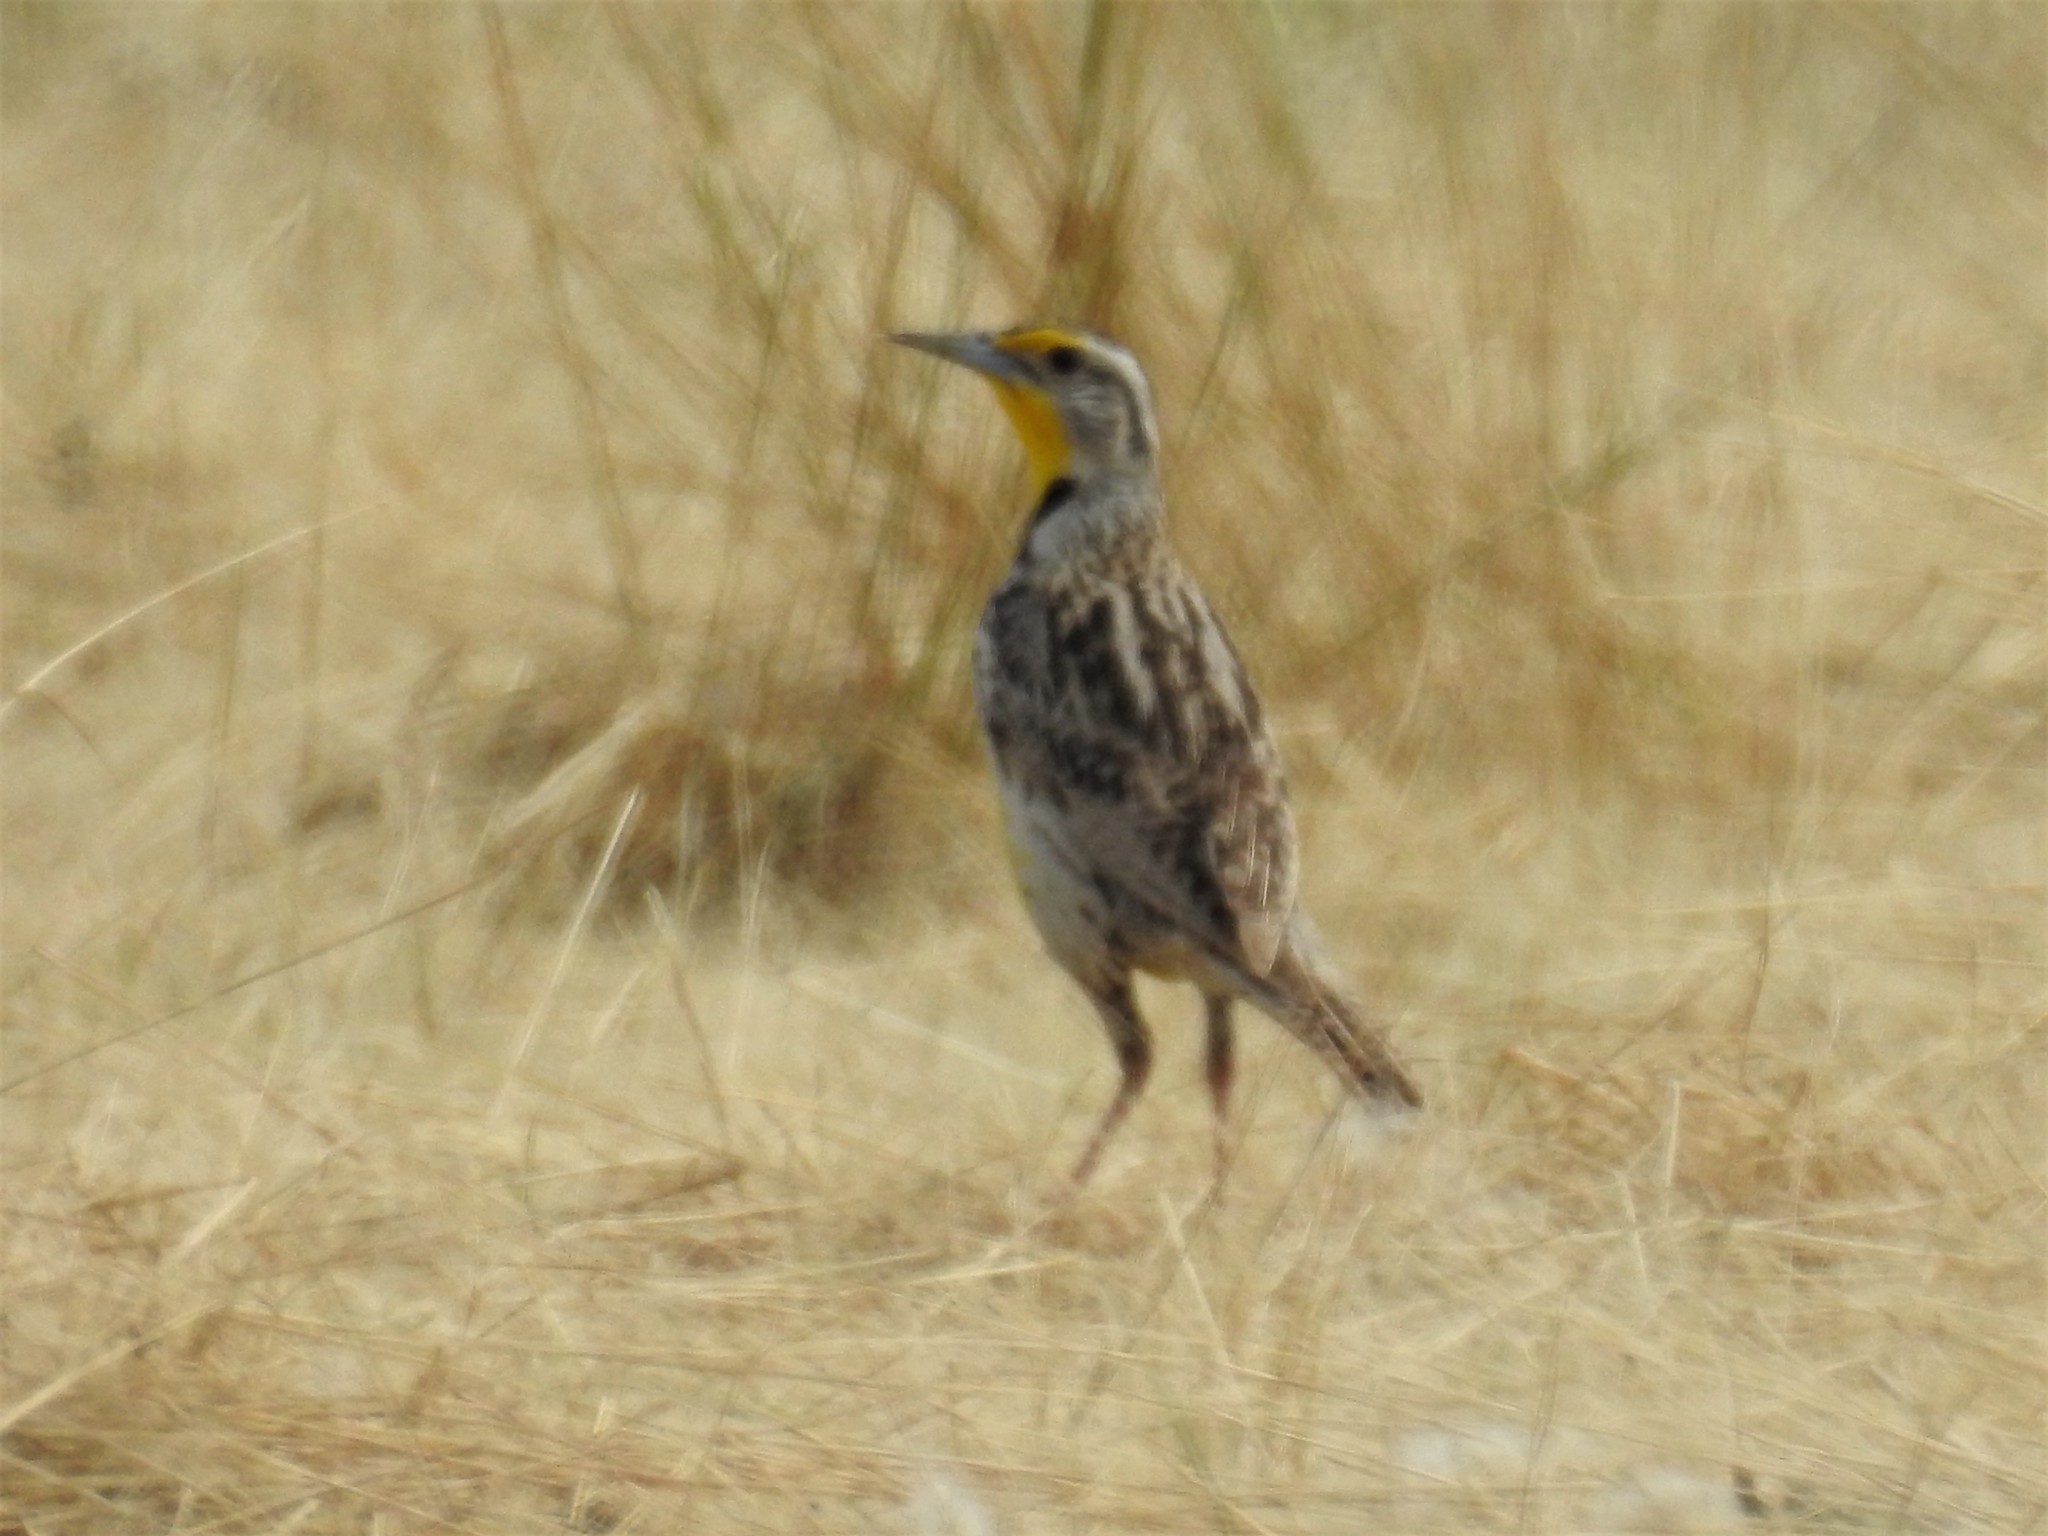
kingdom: Animalia
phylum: Chordata
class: Aves
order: Passeriformes
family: Icteridae
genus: Sturnella
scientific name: Sturnella neglecta
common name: Western meadowlark
